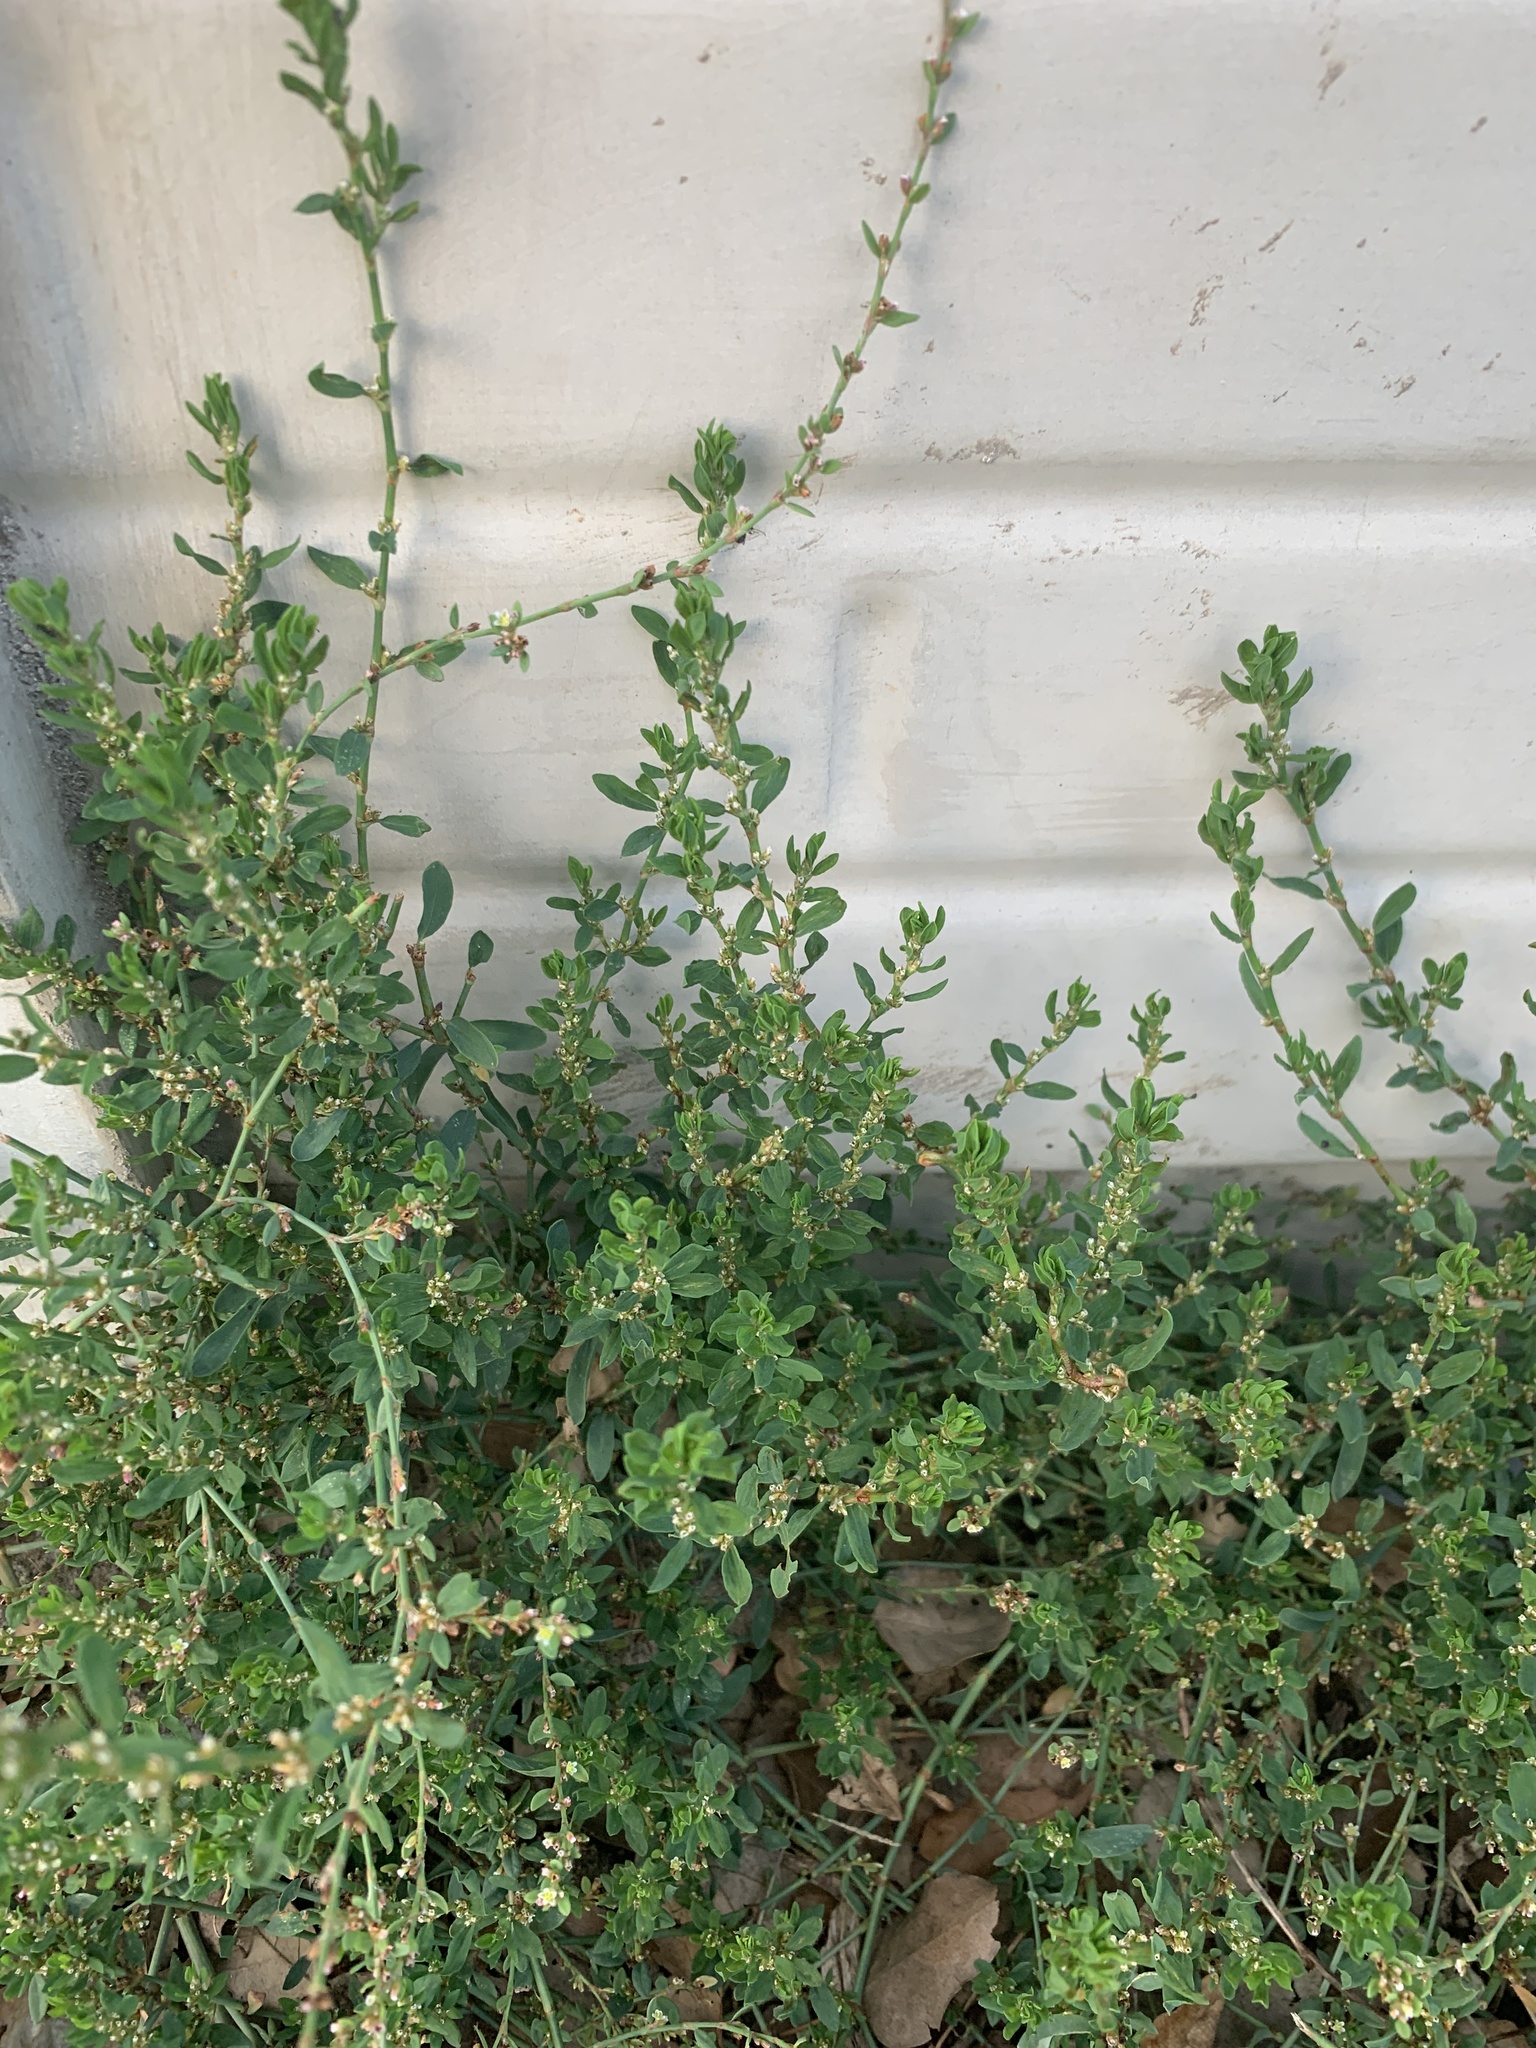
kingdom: Plantae
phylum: Tracheophyta
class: Magnoliopsida
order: Caryophyllales
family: Polygonaceae
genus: Polygonum
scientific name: Polygonum aviculare
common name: Prostrate knotweed
